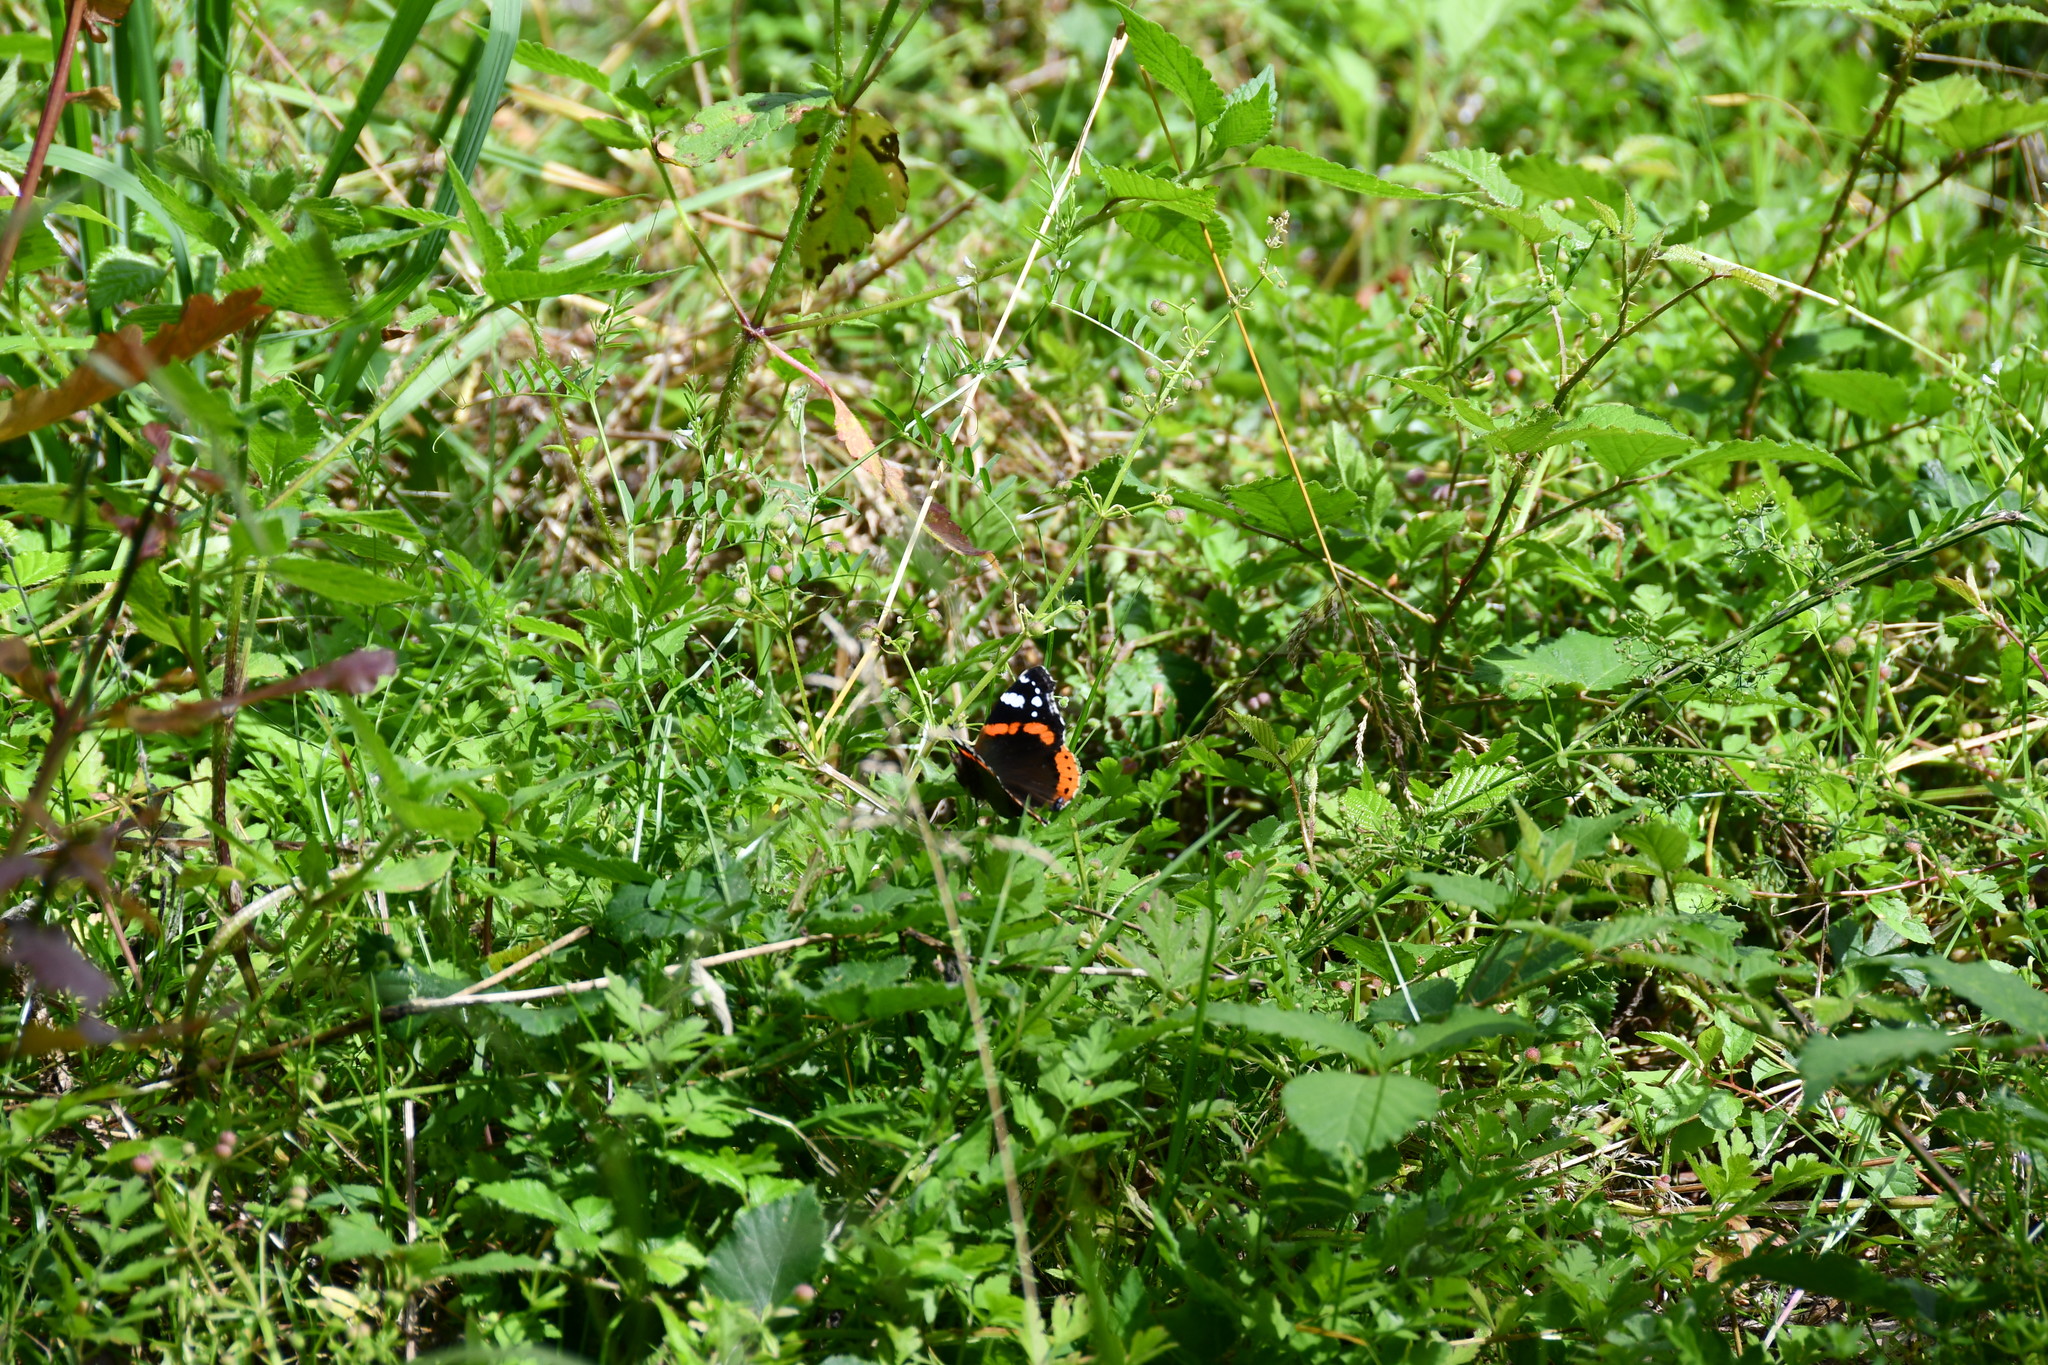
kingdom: Animalia
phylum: Arthropoda
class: Insecta
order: Lepidoptera
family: Nymphalidae
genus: Vanessa
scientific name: Vanessa atalanta
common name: Red admiral
